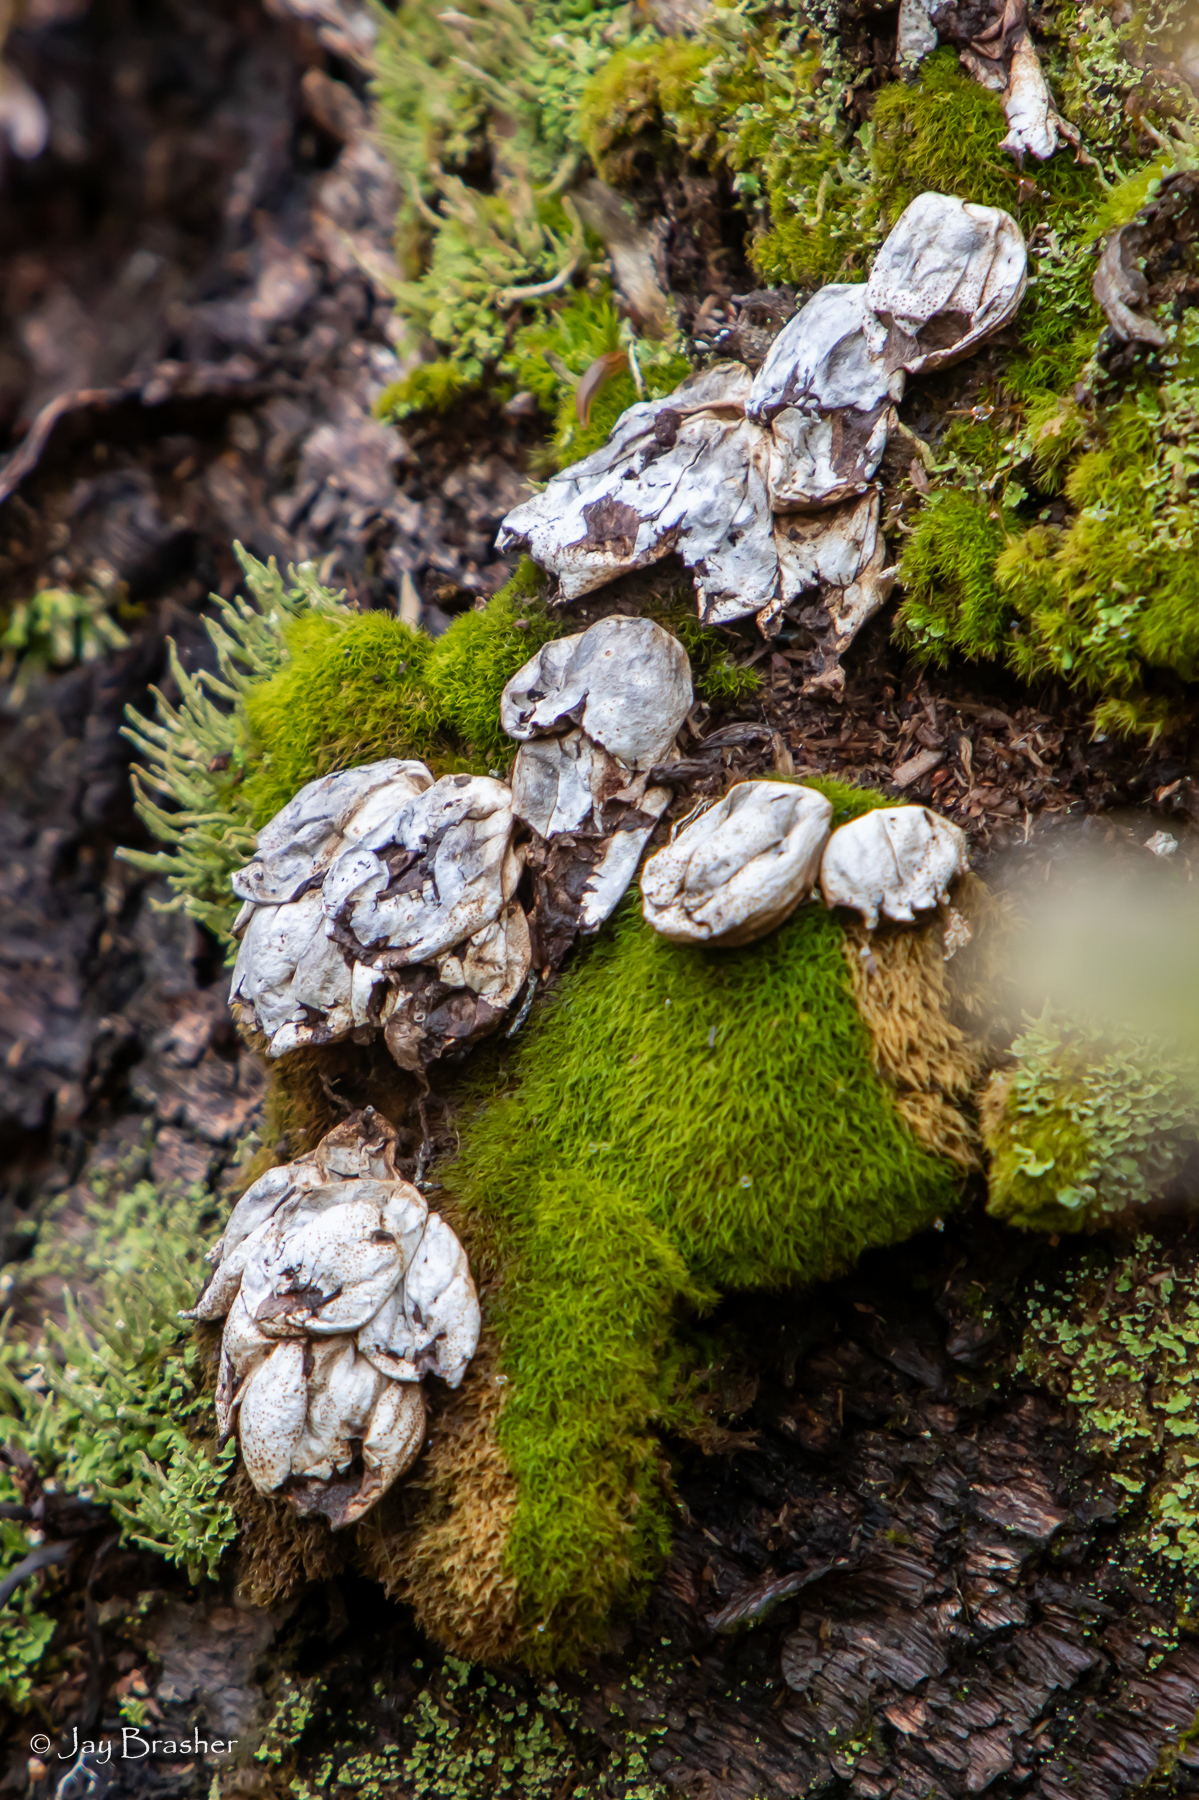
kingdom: Fungi
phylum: Basidiomycota
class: Agaricomycetes
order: Agaricales
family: Lycoperdaceae
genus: Apioperdon
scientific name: Apioperdon pyriforme
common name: Pear-shaped puffball
